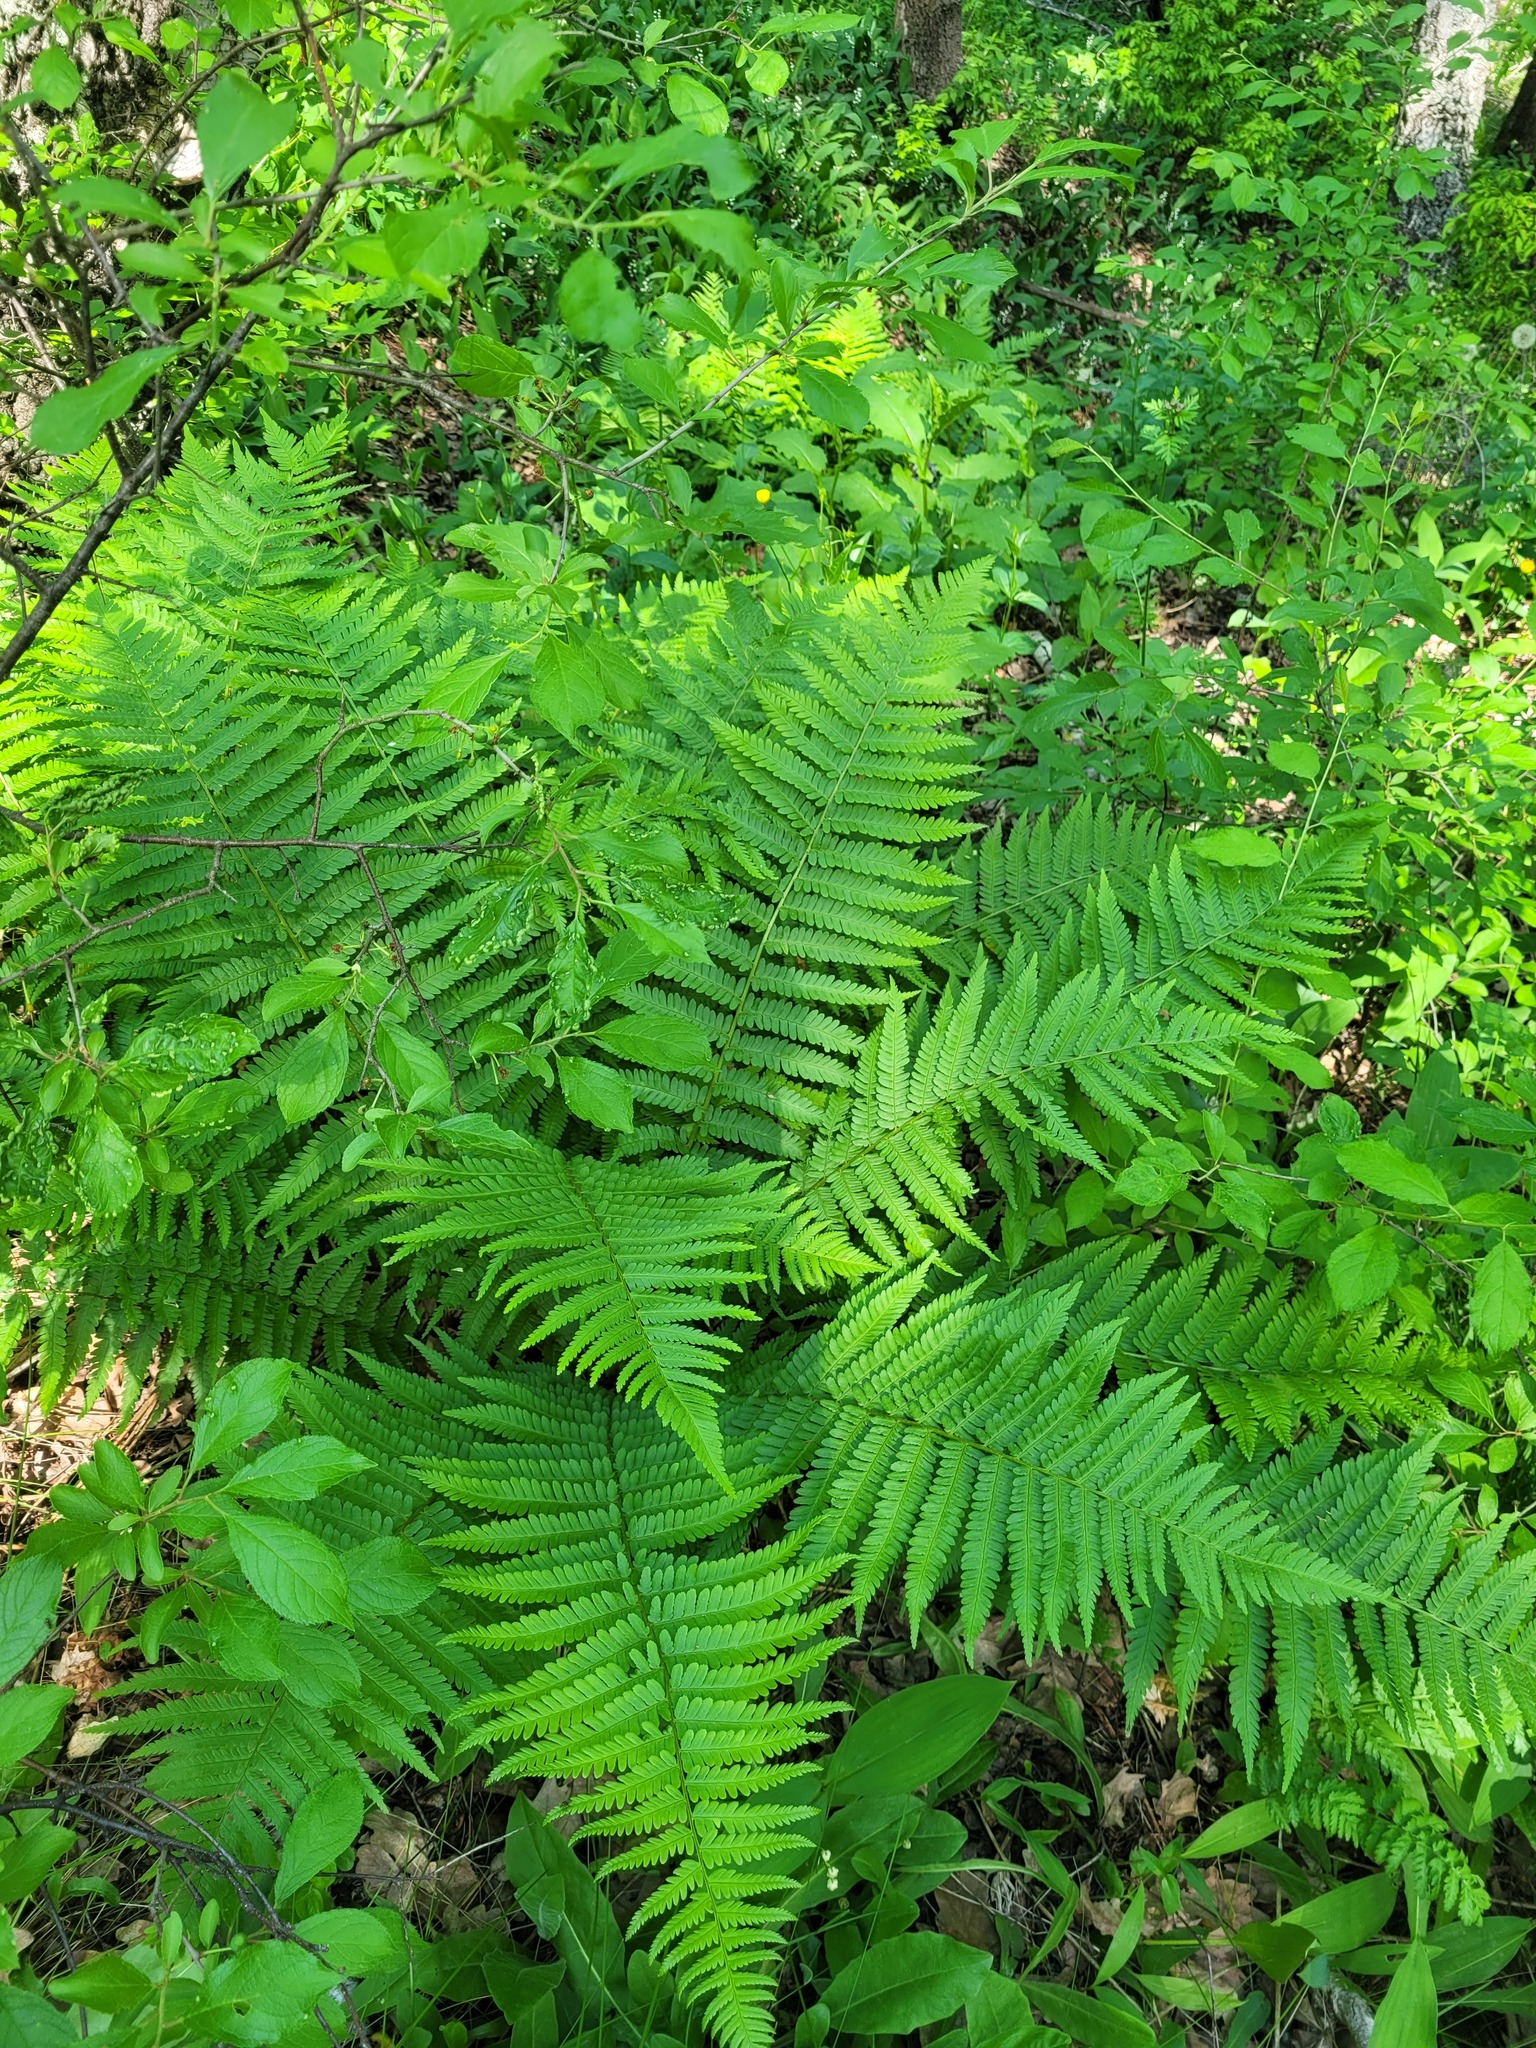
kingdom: Plantae
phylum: Tracheophyta
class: Polypodiopsida
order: Polypodiales
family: Dryopteridaceae
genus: Dryopteris
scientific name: Dryopteris filix-mas
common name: Male fern
